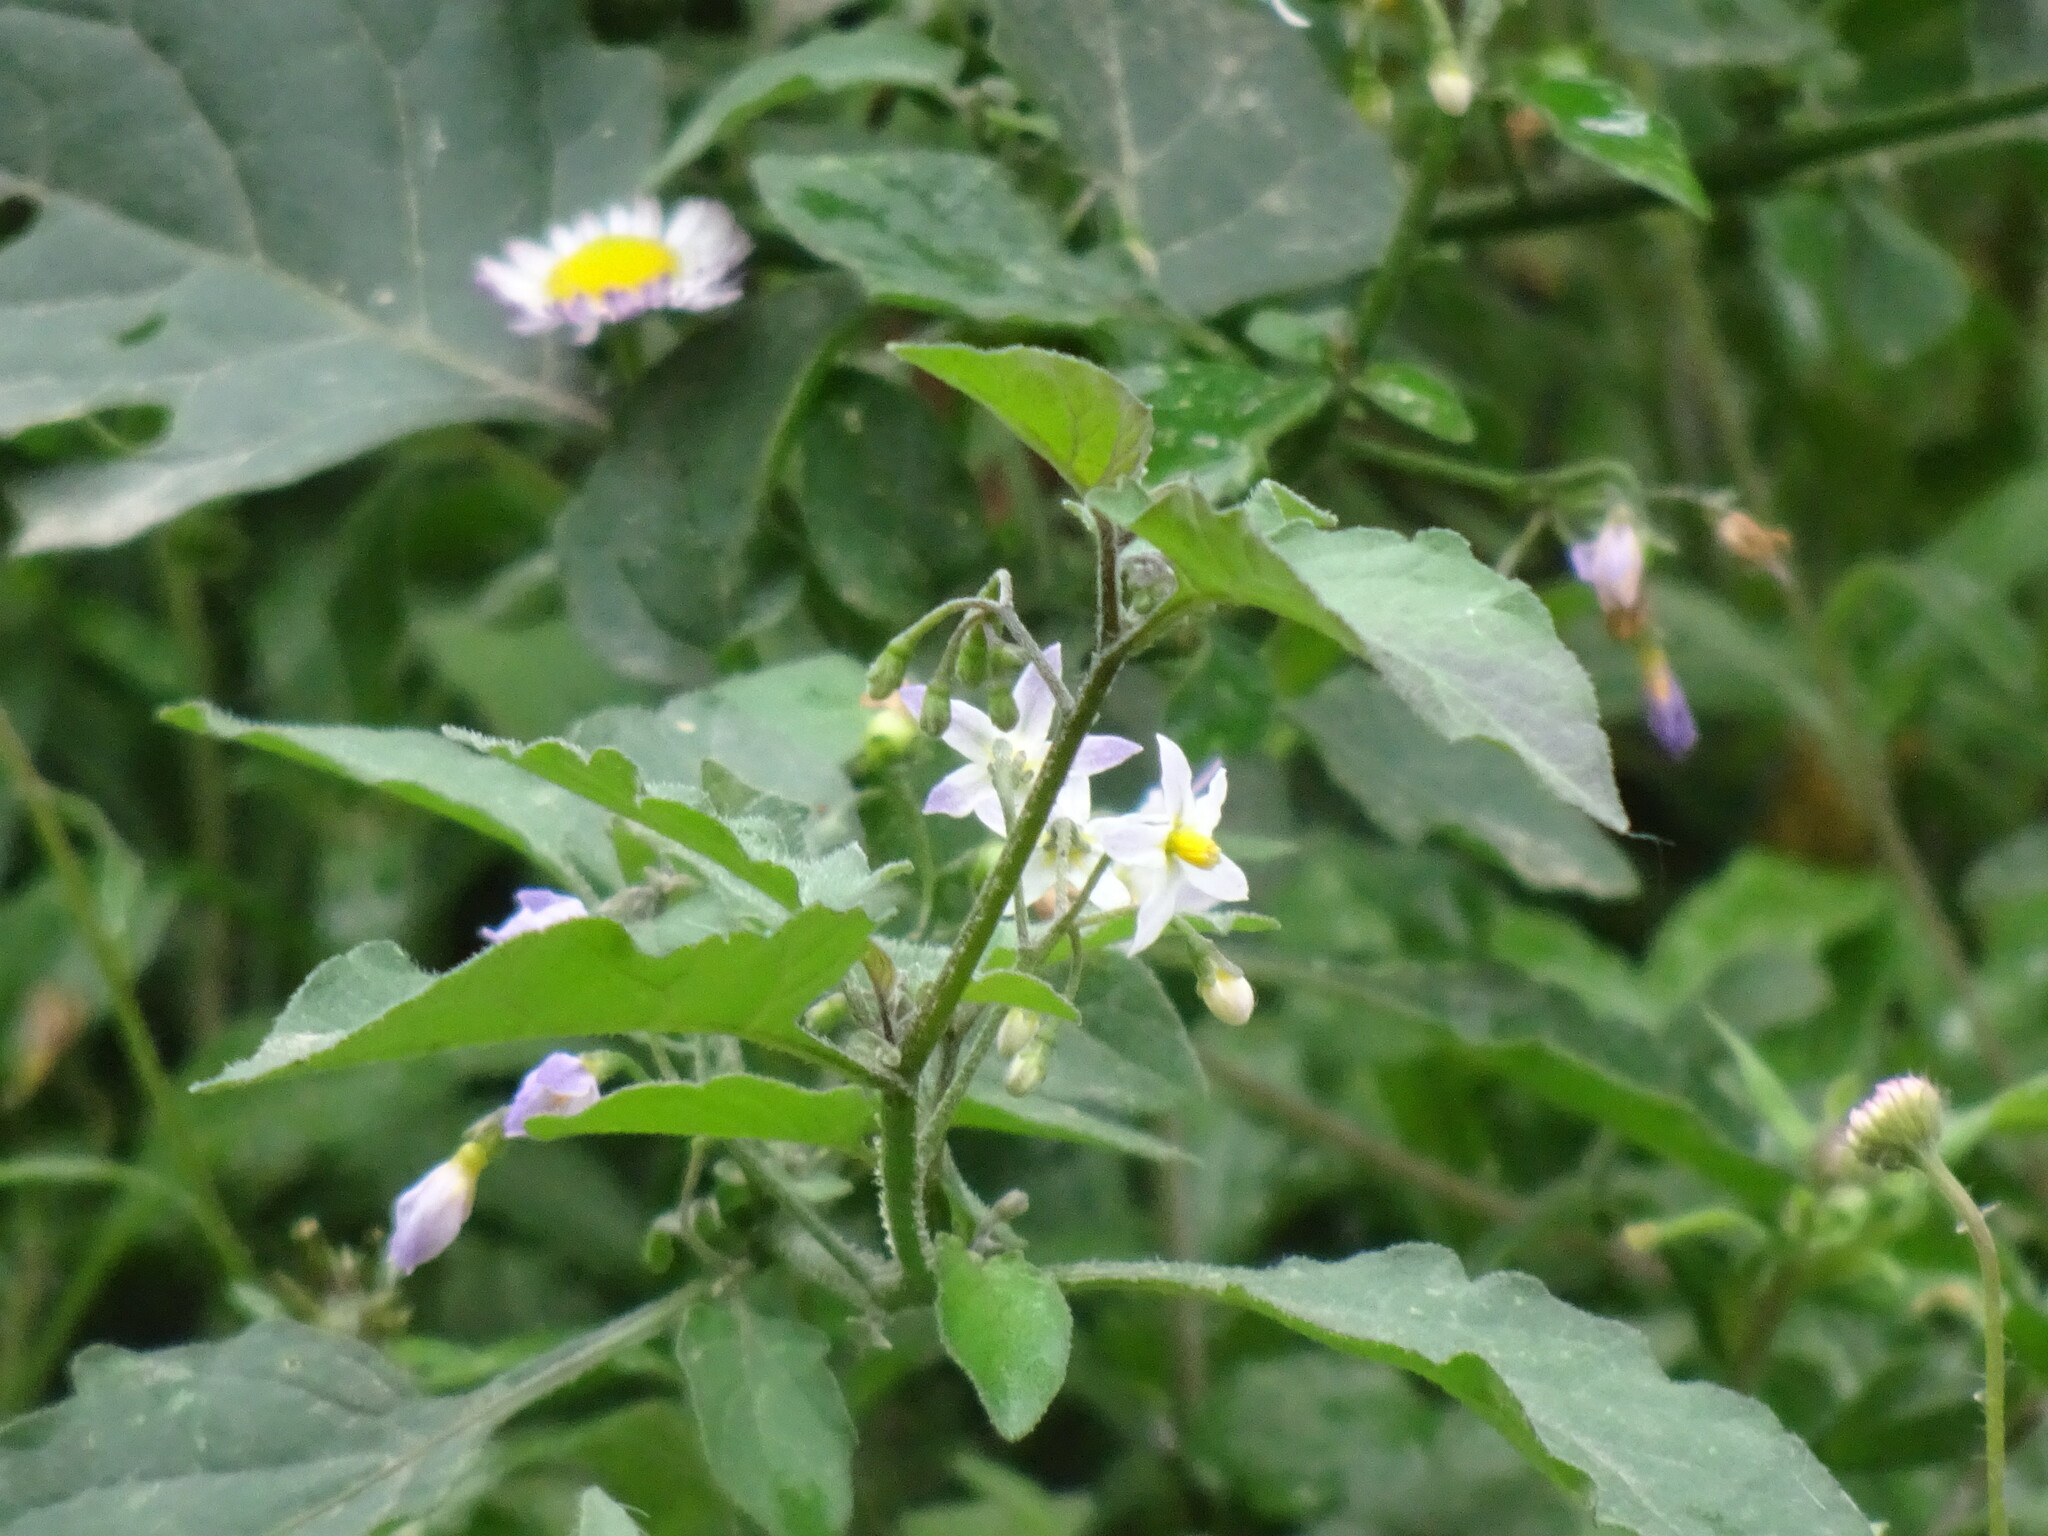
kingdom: Plantae
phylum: Tracheophyta
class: Magnoliopsida
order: Solanales
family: Solanaceae
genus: Solanum
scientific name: Solanum americanum
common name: American black nightshade
